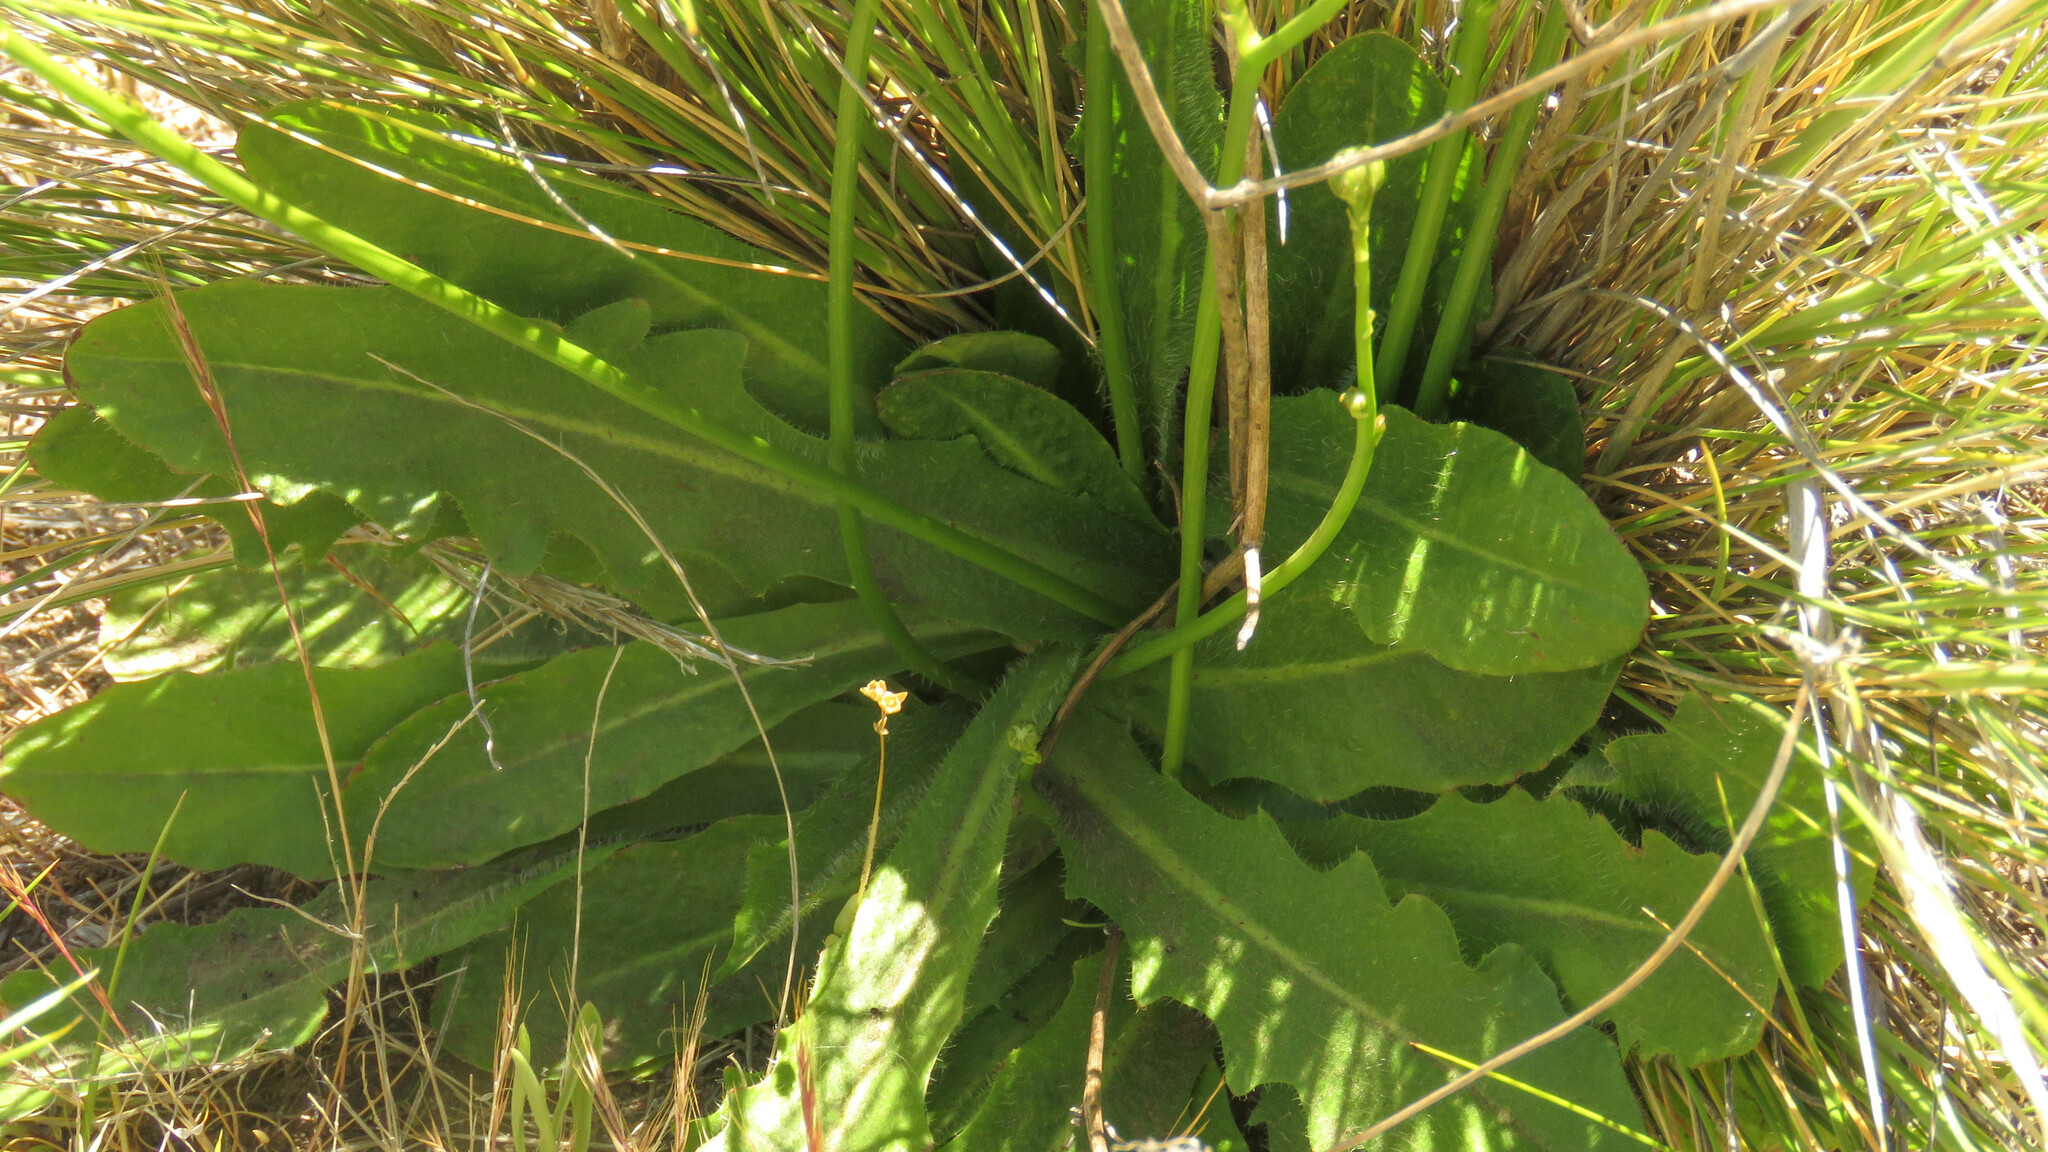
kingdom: Plantae
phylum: Tracheophyta
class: Magnoliopsida
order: Asterales
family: Asteraceae
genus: Hypochaeris
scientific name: Hypochaeris radicata
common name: Flatweed
